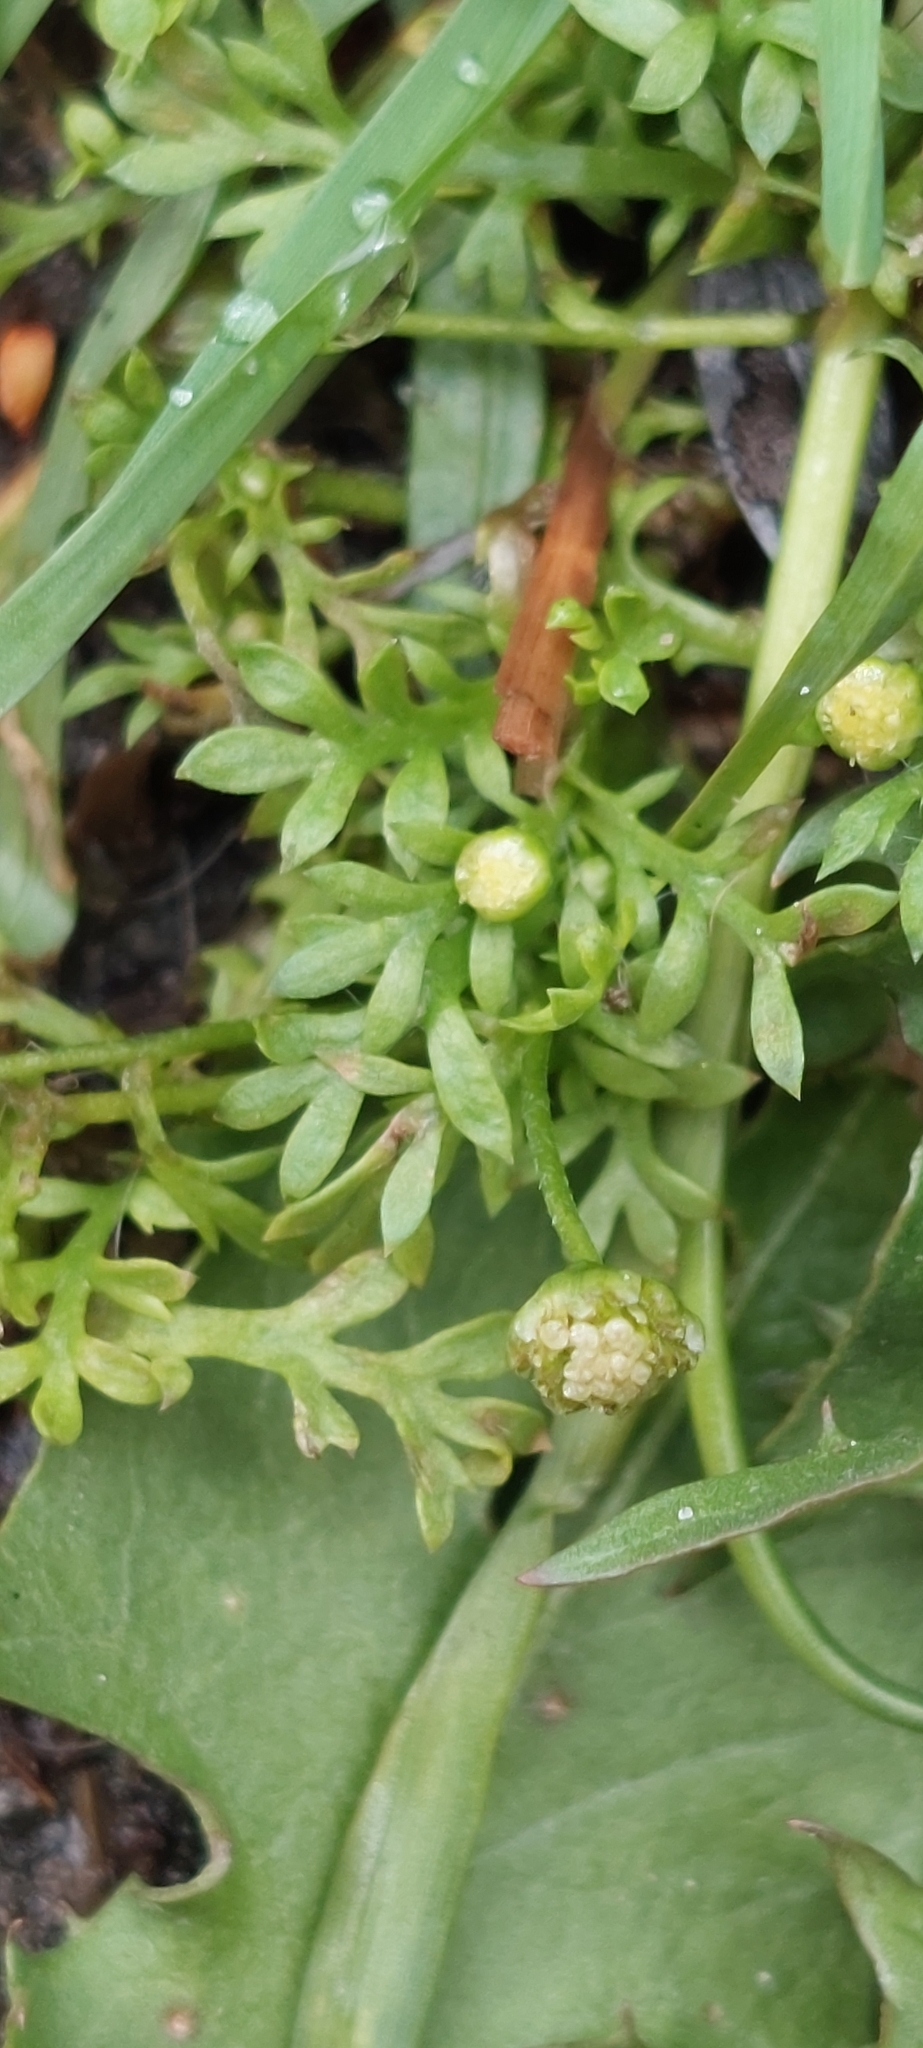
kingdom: Plantae
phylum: Tracheophyta
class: Magnoliopsida
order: Asterales
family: Asteraceae
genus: Cotula
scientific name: Cotula australis
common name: Australian waterbuttons
